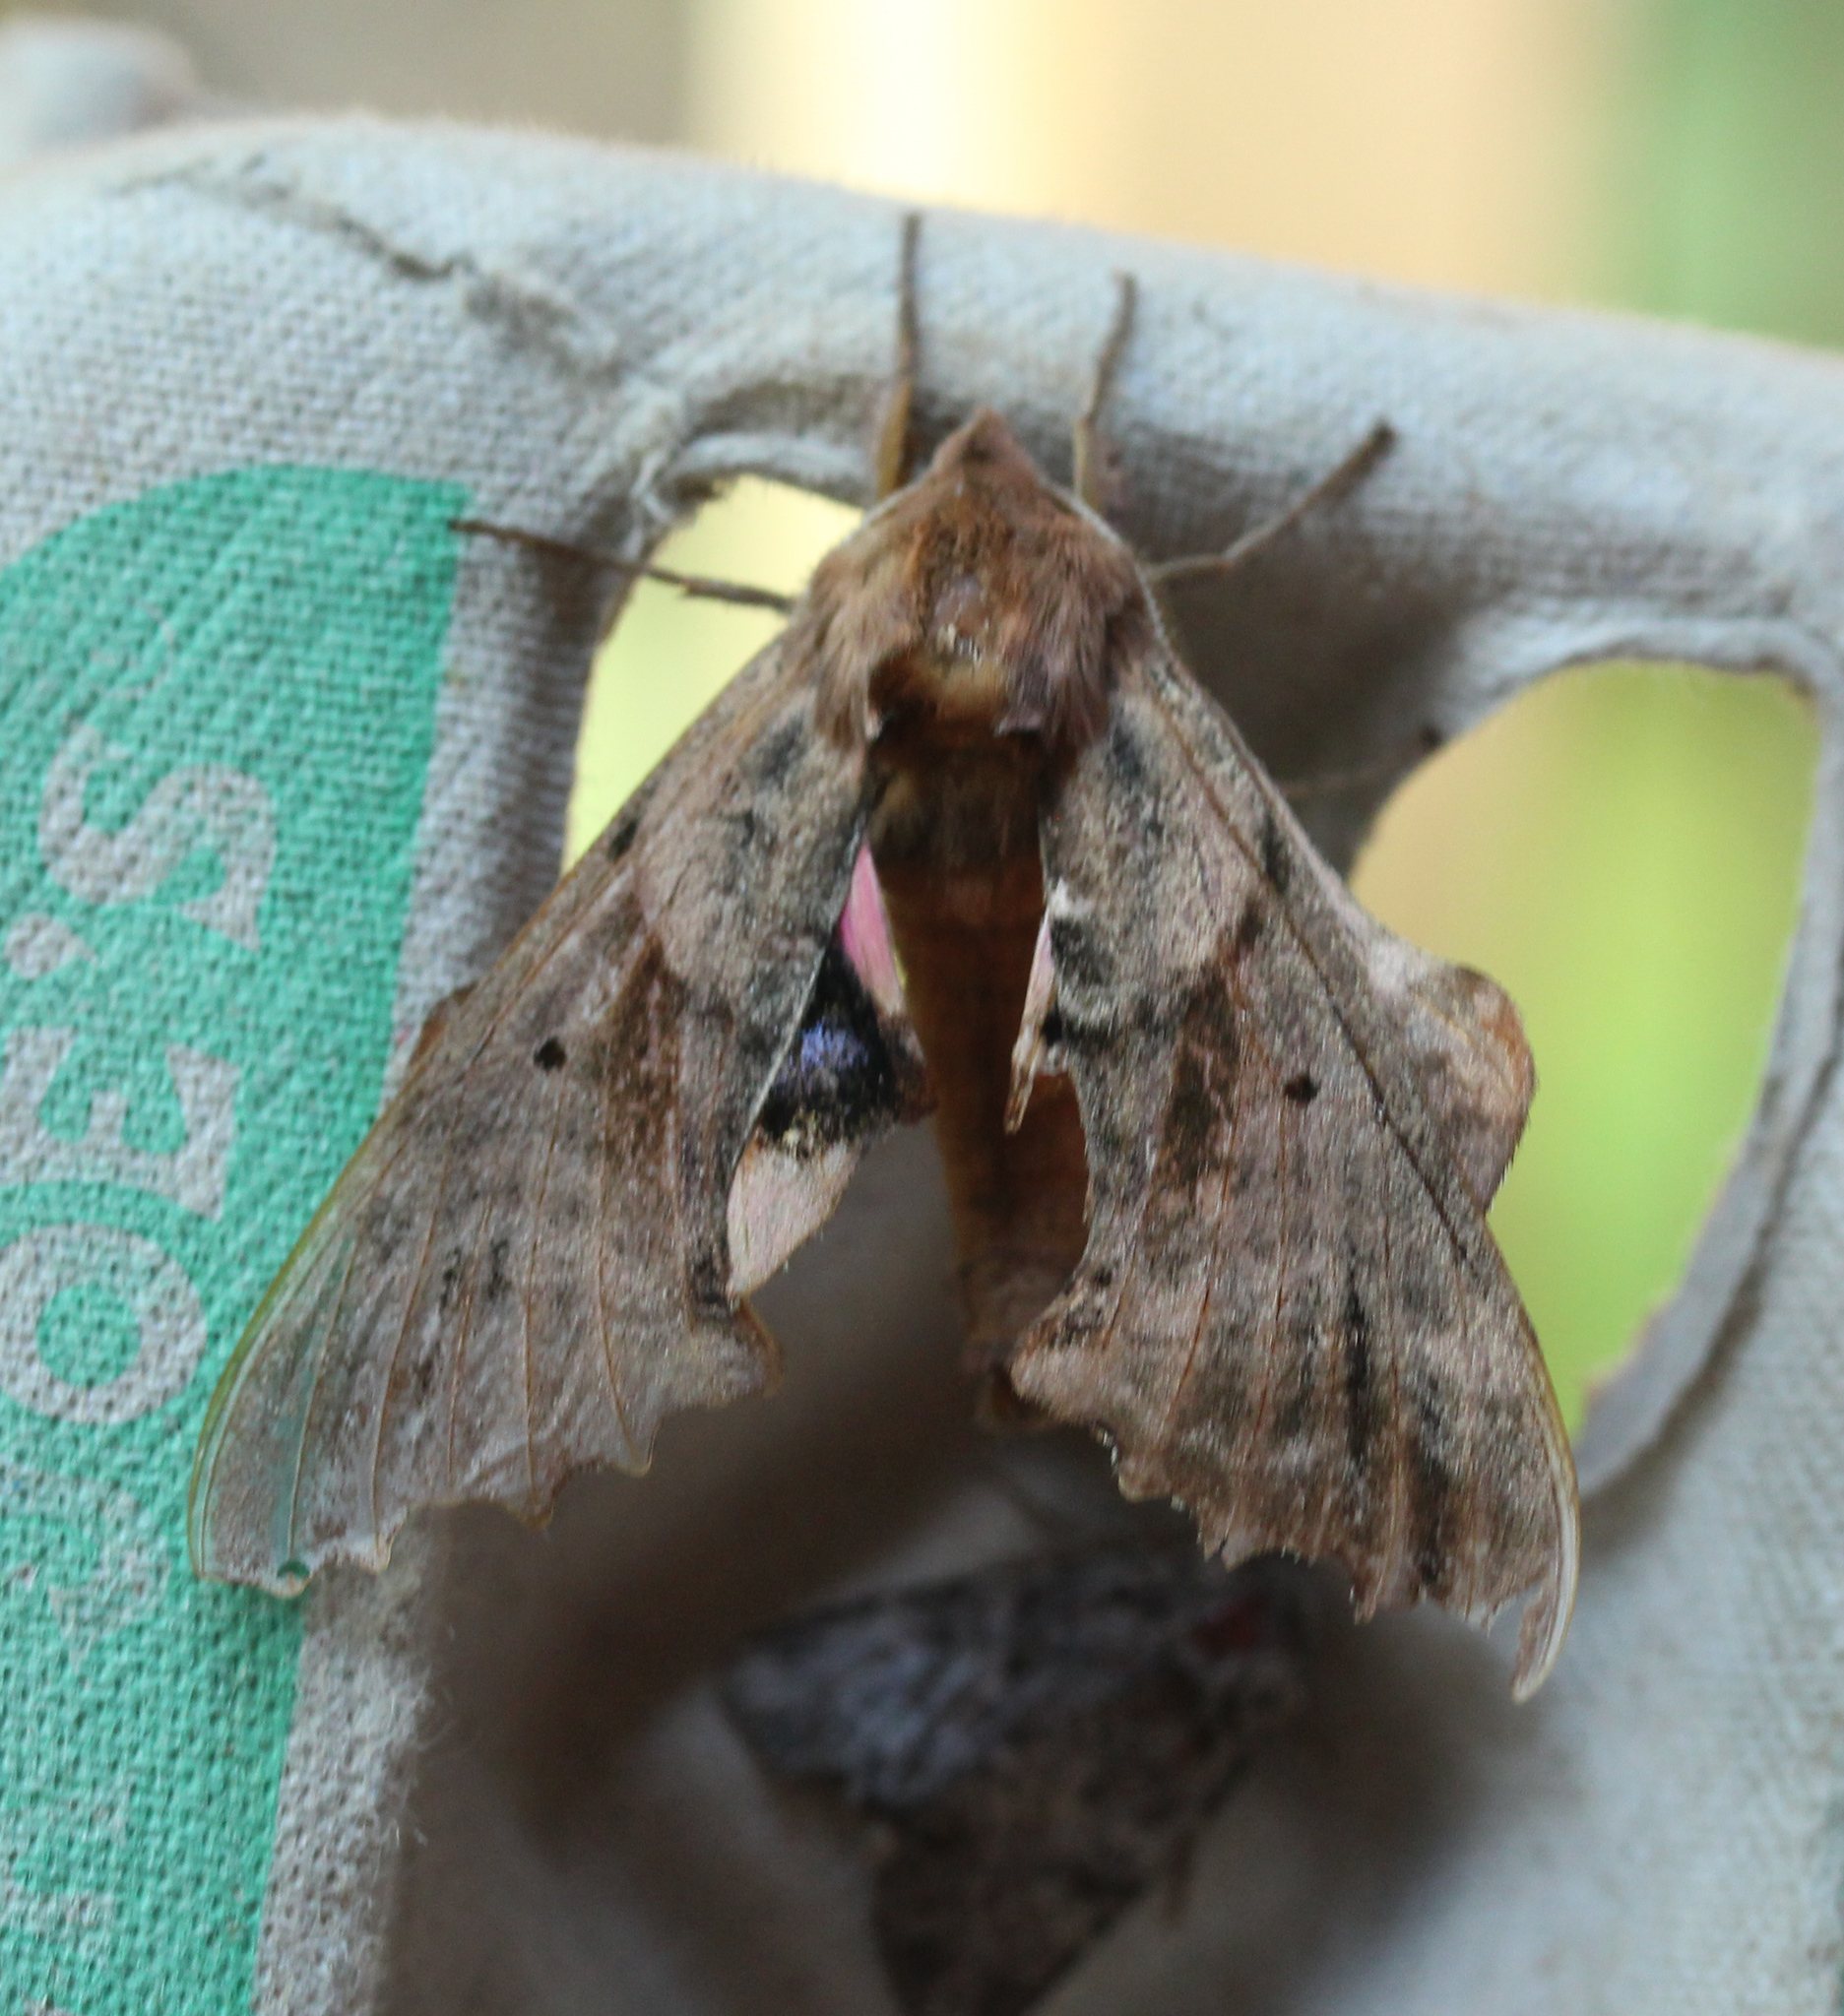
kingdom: Animalia
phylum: Arthropoda
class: Insecta
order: Lepidoptera
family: Sphingidae
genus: Paonias
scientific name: Paonias excaecata
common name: Blind-eyed sphinx
